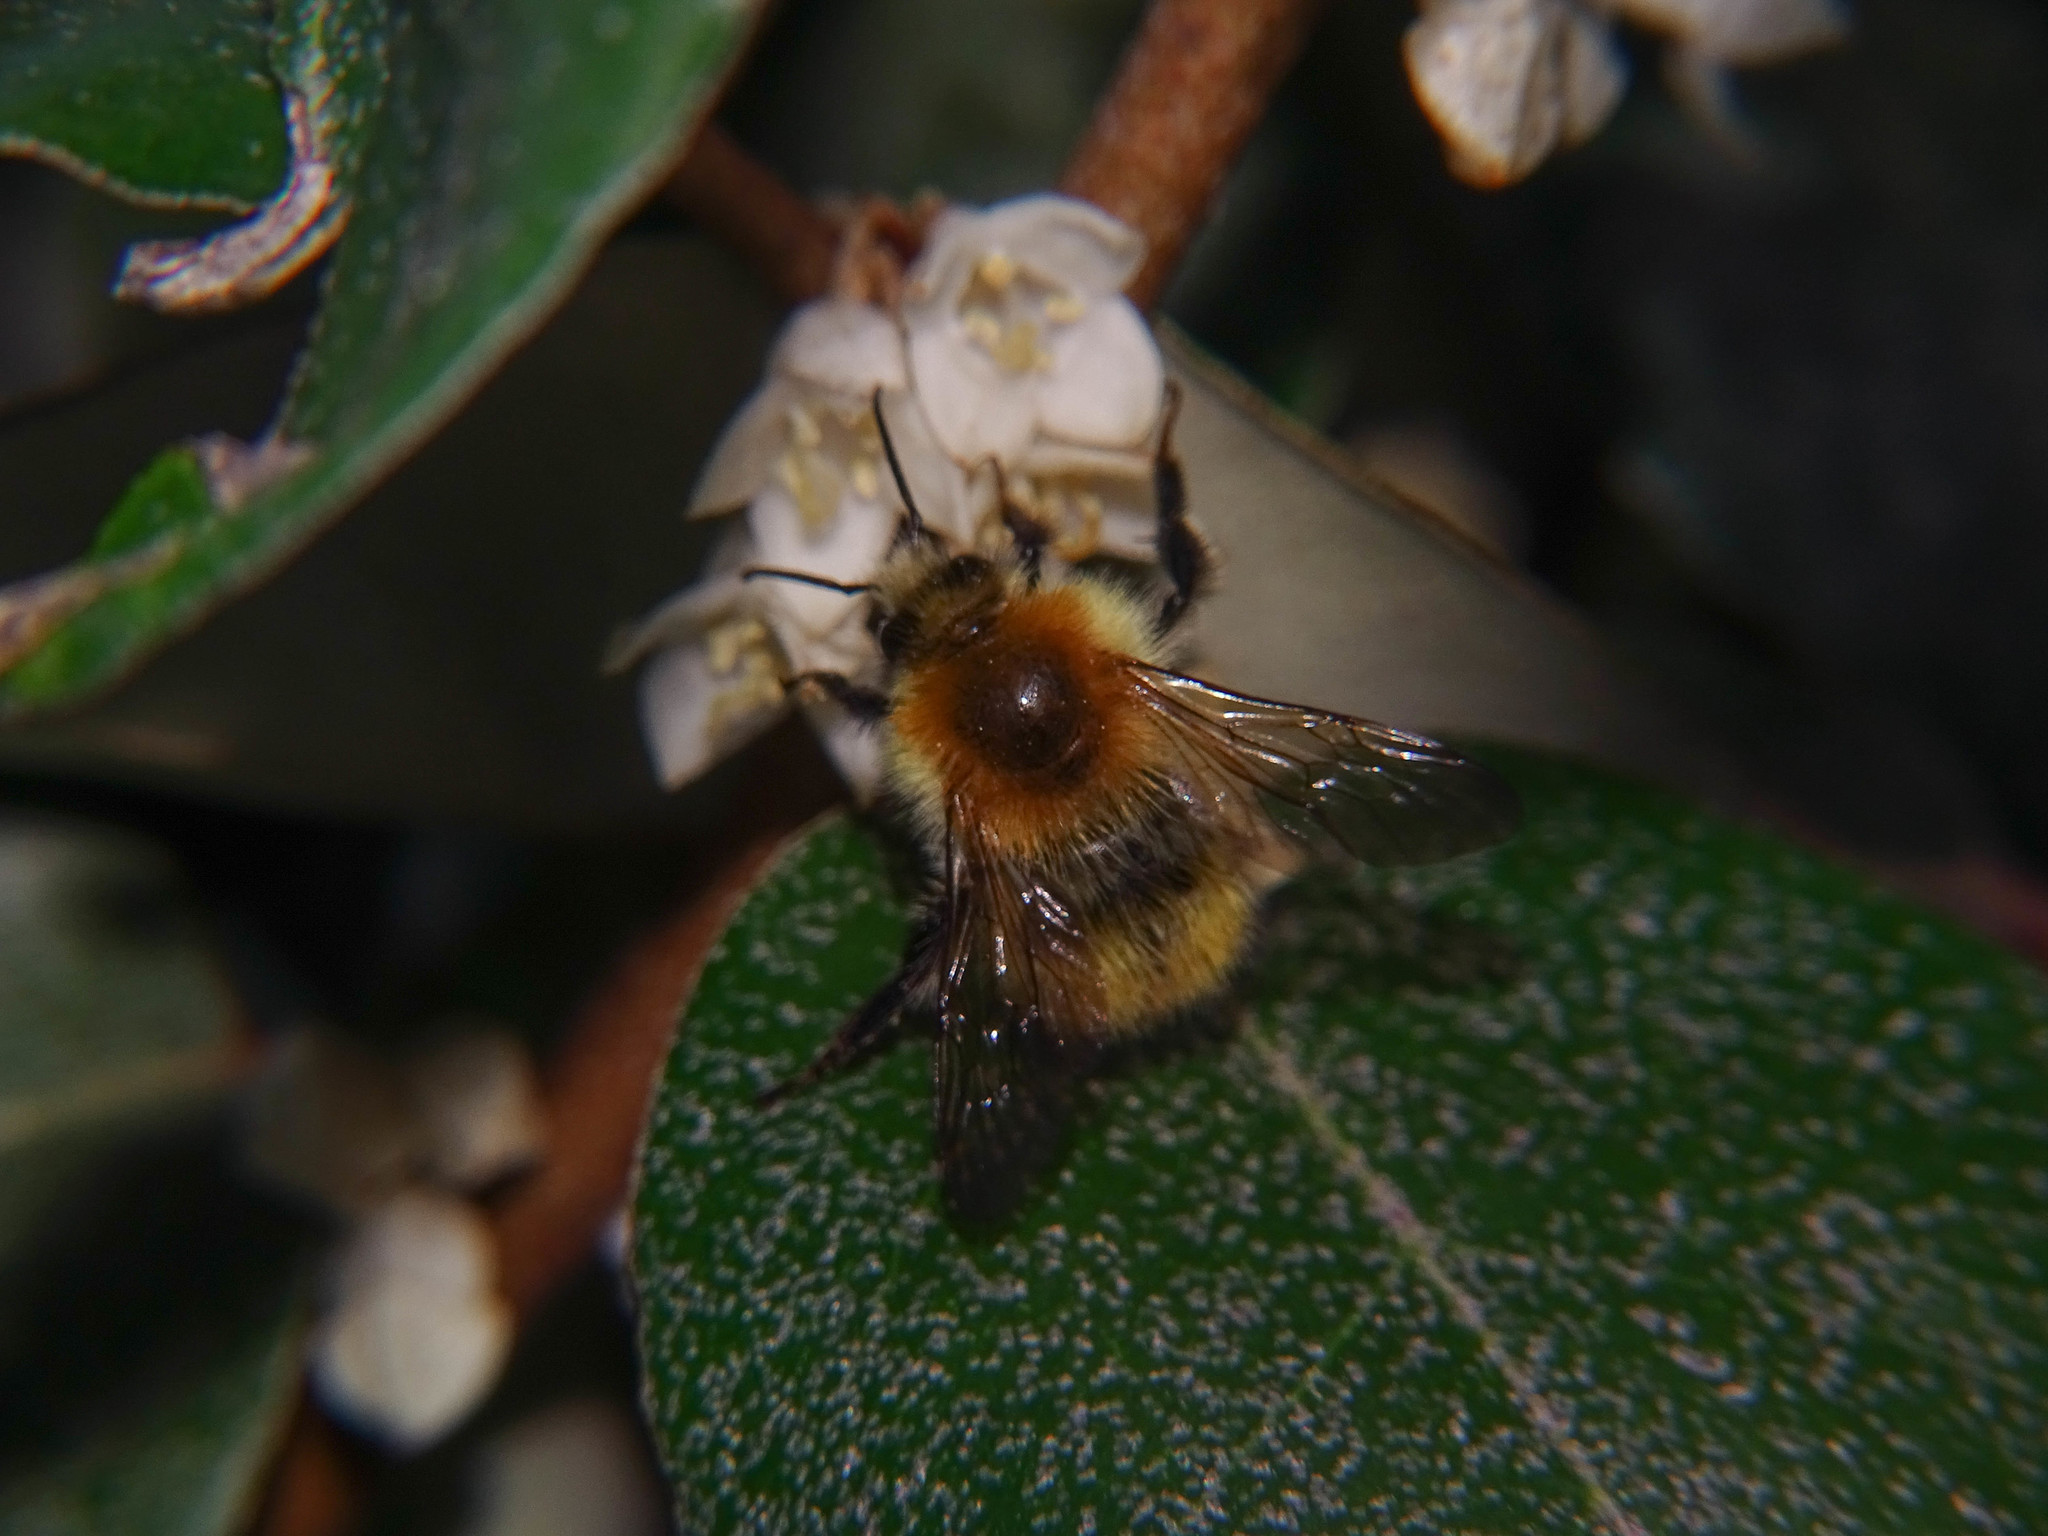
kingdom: Animalia
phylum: Arthropoda
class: Insecta
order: Hymenoptera
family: Apidae
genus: Bombus
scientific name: Bombus pascuorum
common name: Common carder bee
